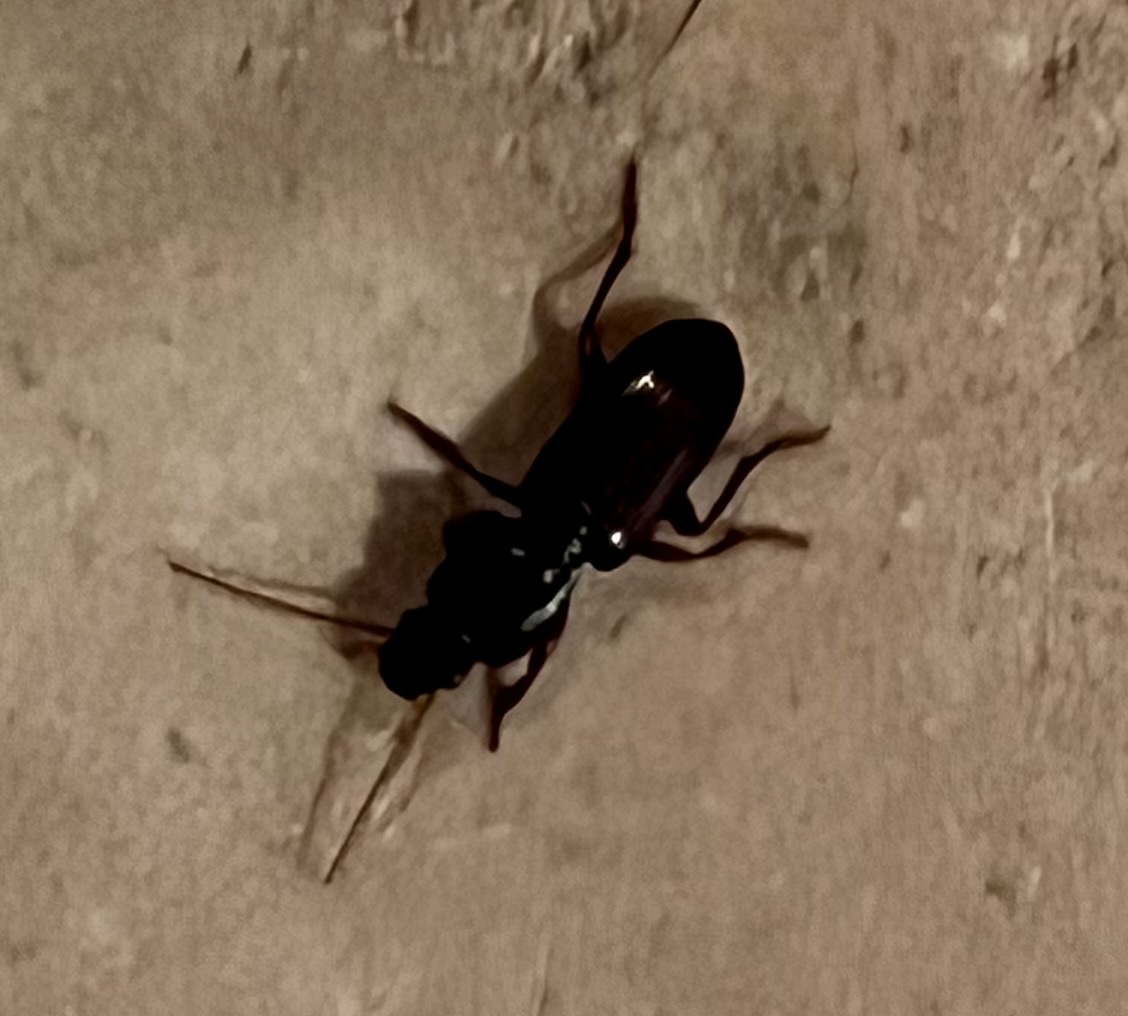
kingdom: Animalia
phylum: Arthropoda
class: Insecta
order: Coleoptera
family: Carabidae
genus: Stenomorphus
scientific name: Stenomorphus californicus
